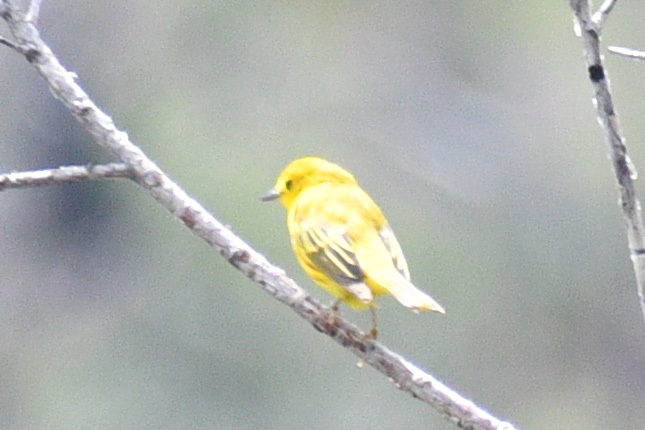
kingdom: Animalia
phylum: Chordata
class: Aves
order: Passeriformes
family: Parulidae
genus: Setophaga
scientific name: Setophaga petechia
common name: Yellow warbler
